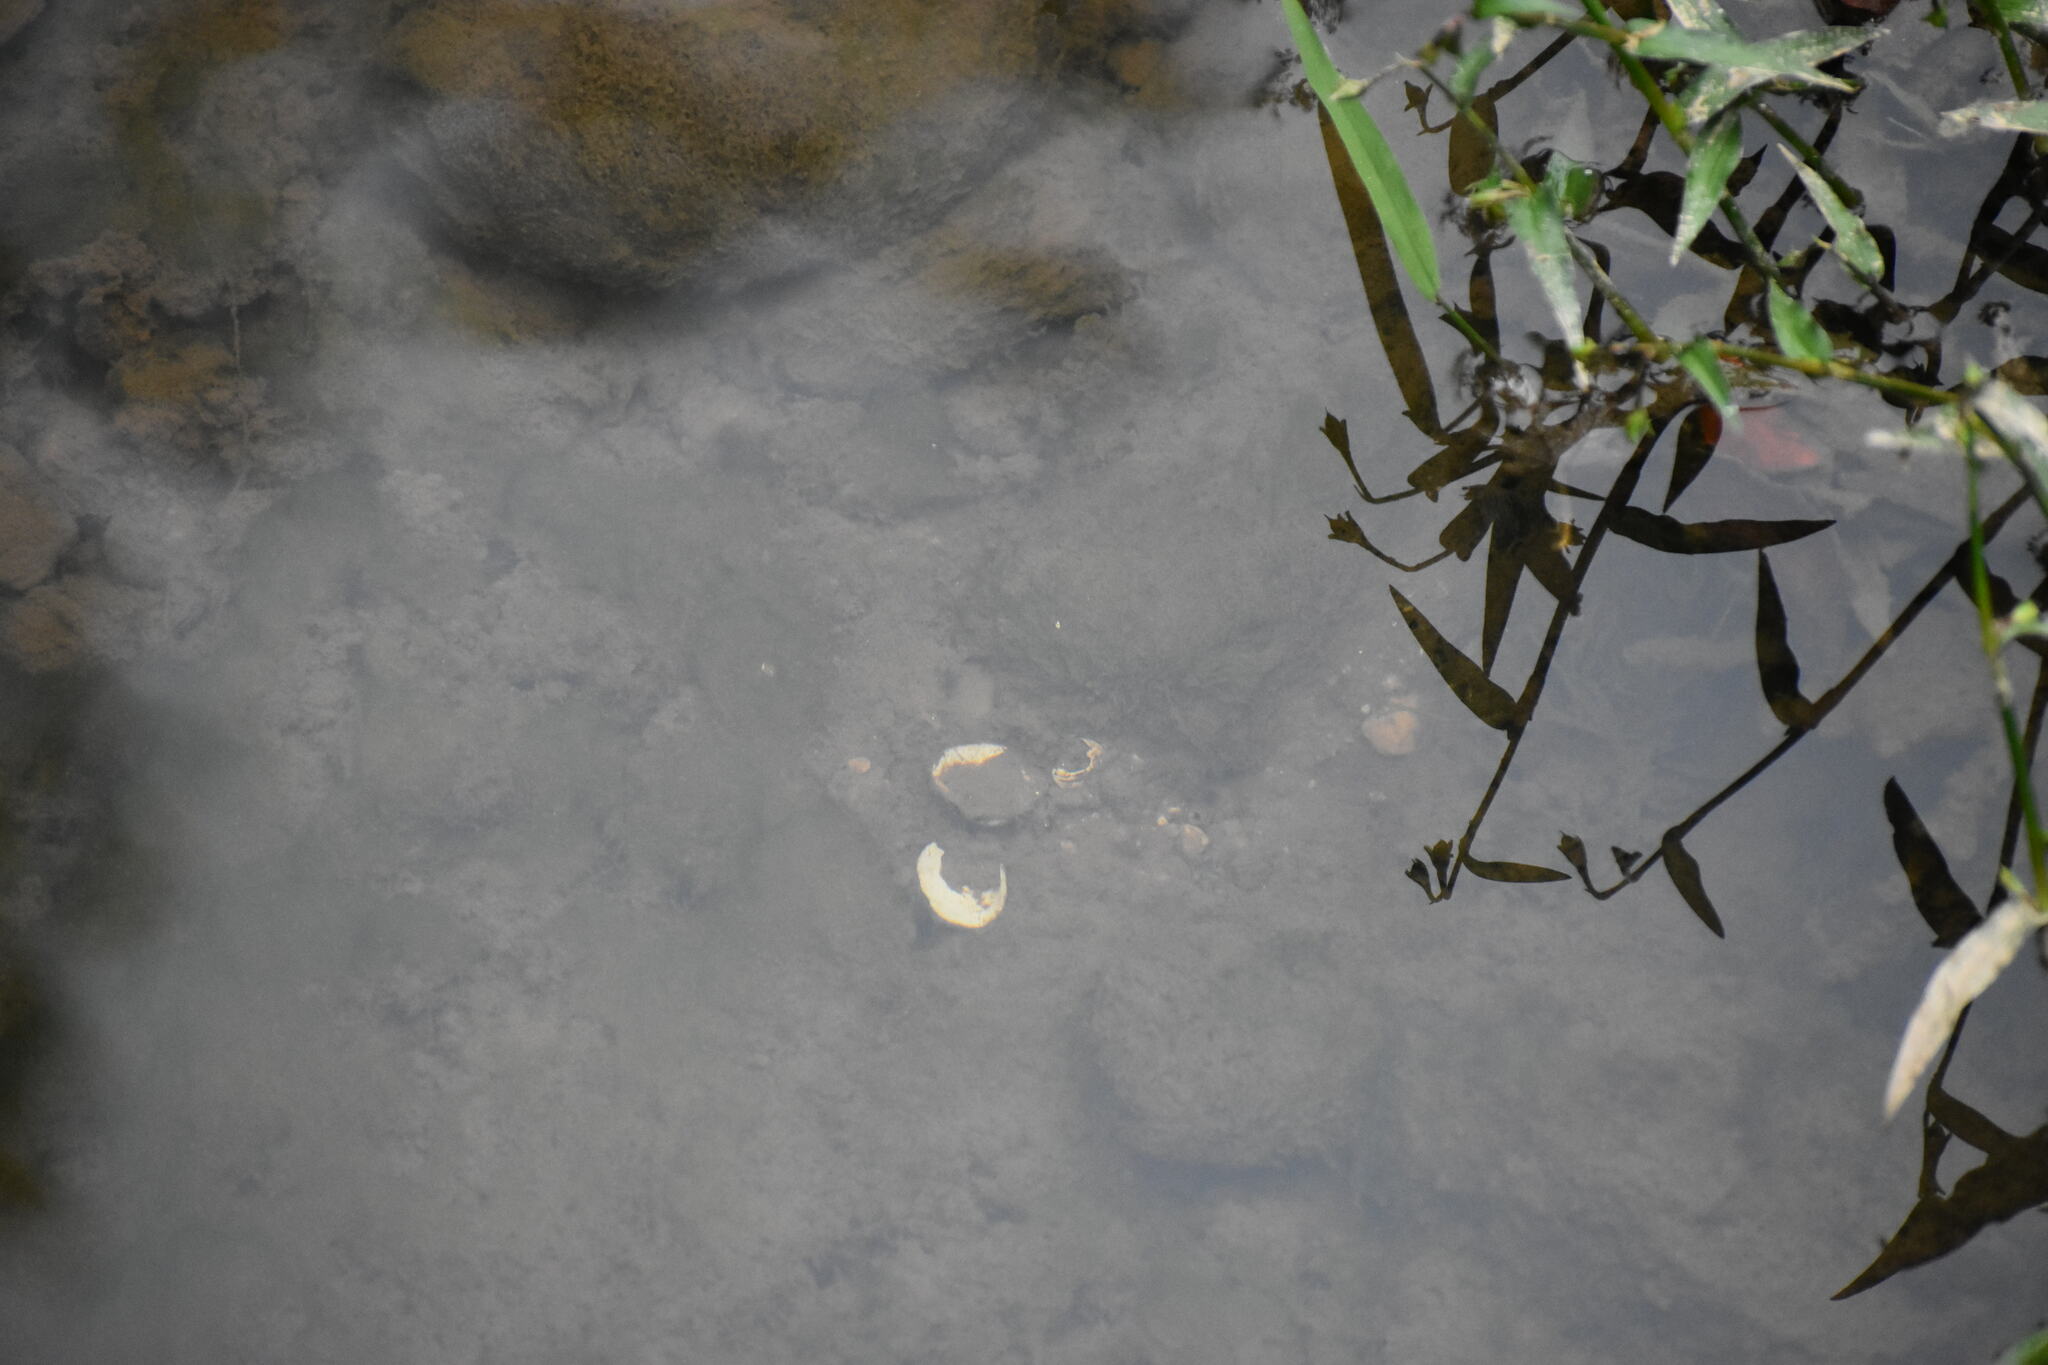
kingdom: Animalia
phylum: Mollusca
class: Bivalvia
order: Venerida
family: Cyrenidae
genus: Corbicula
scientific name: Corbicula fluminea
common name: Asian clam
